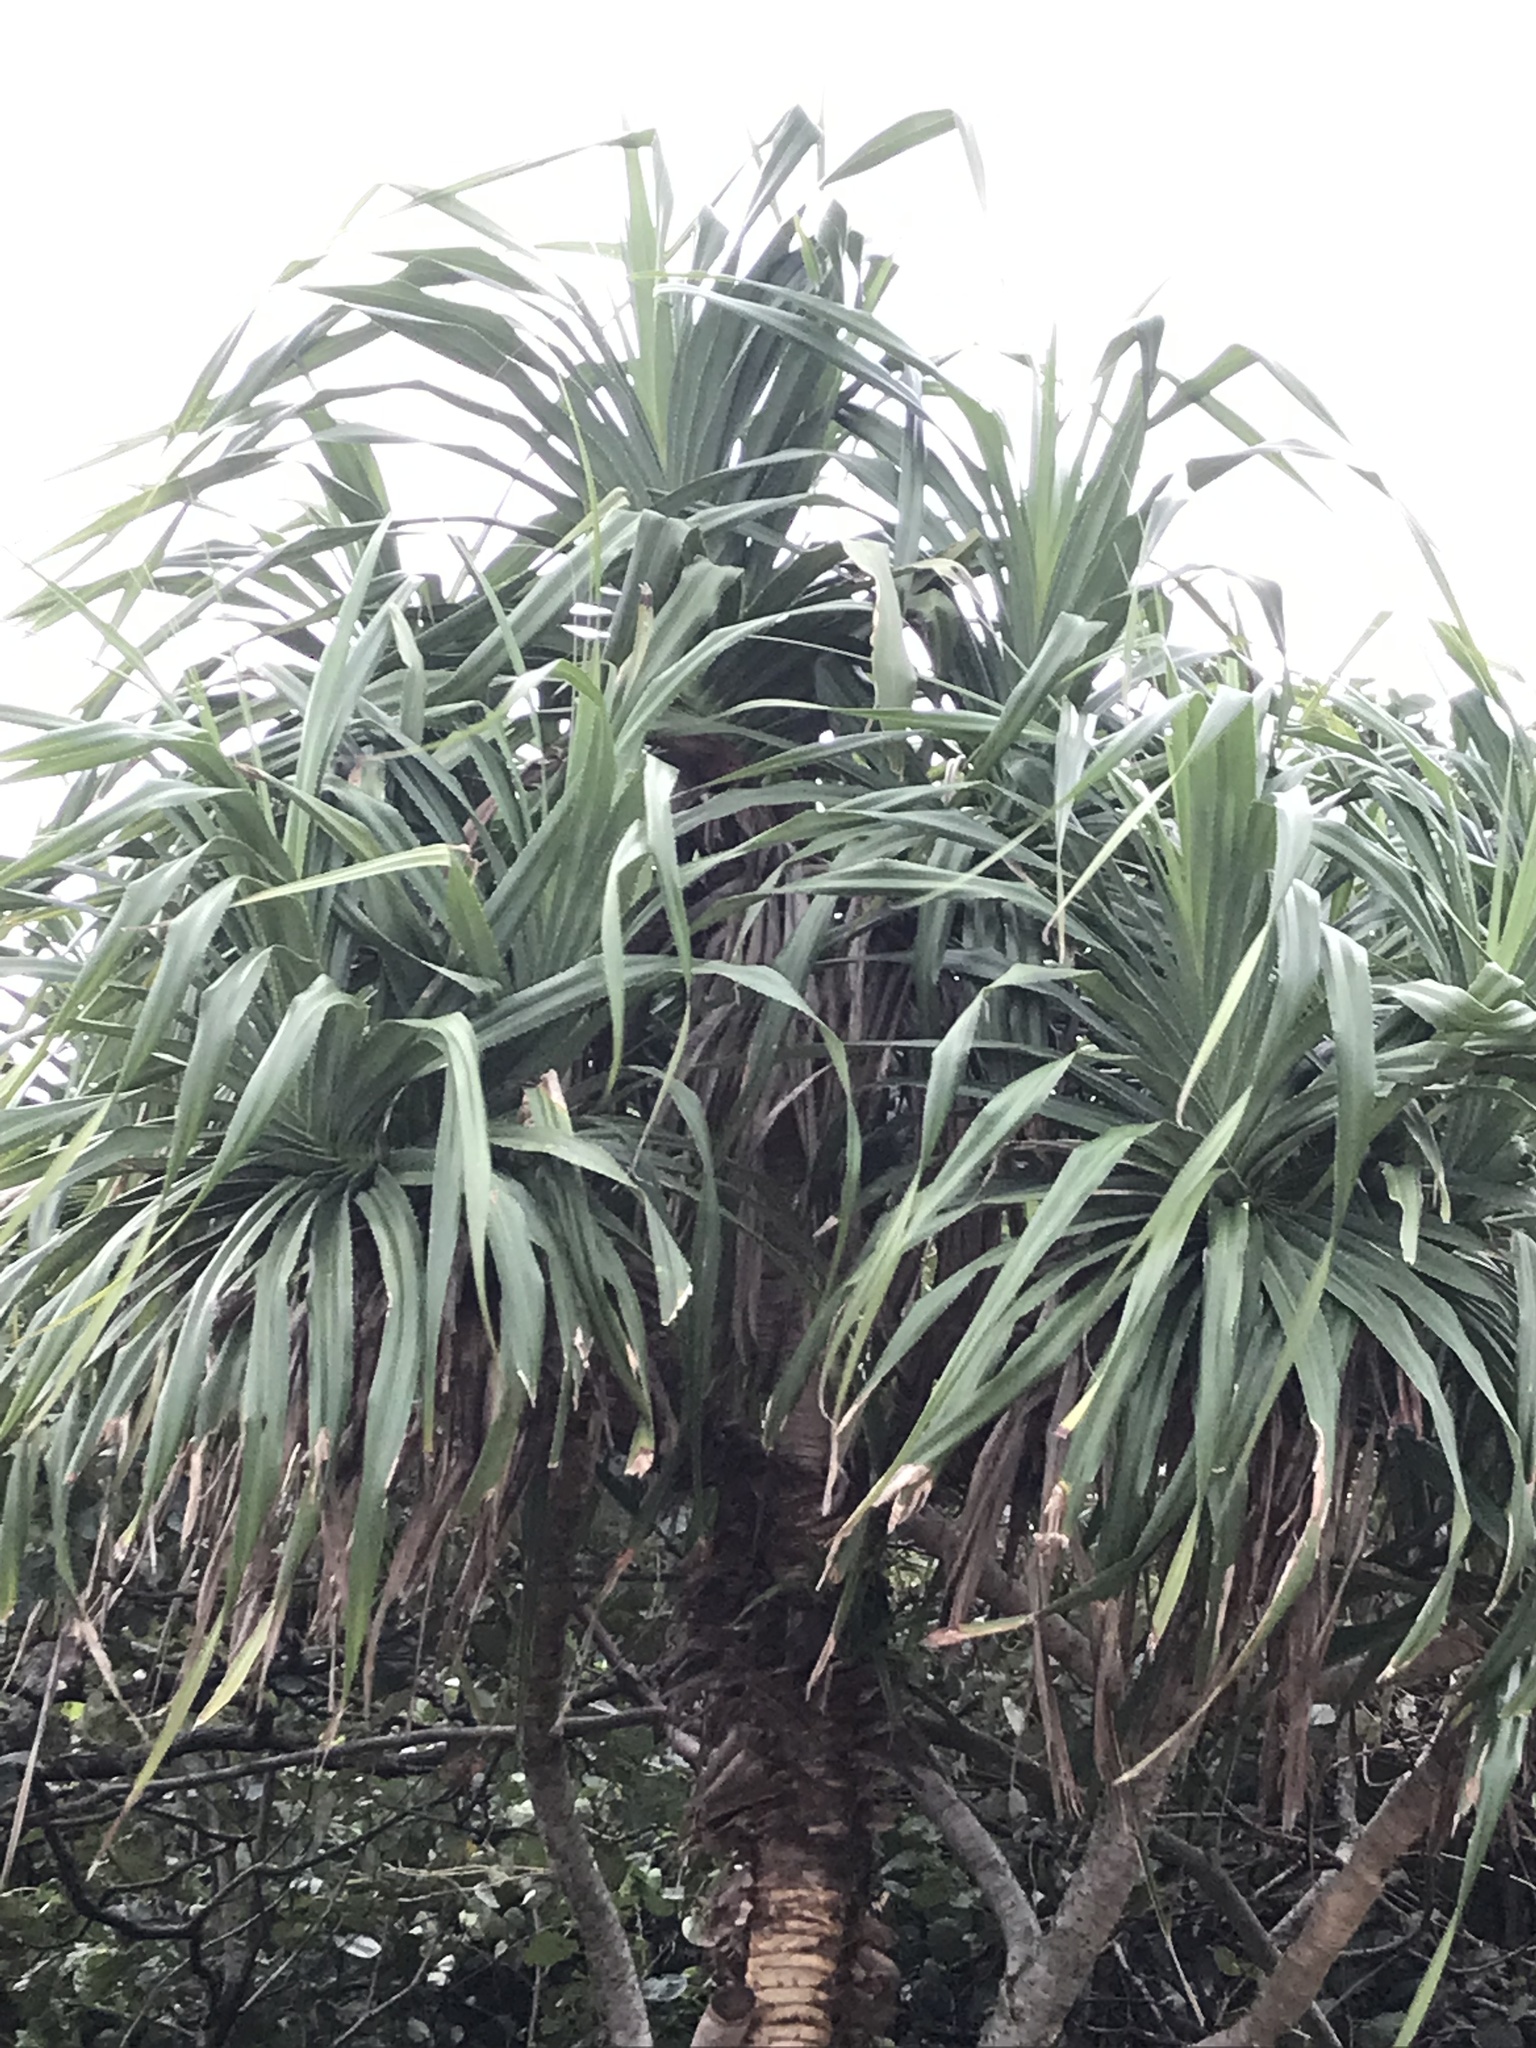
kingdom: Plantae
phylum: Tracheophyta
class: Liliopsida
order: Pandanales
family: Pandanaceae
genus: Pandanus
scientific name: Pandanus tectorius
